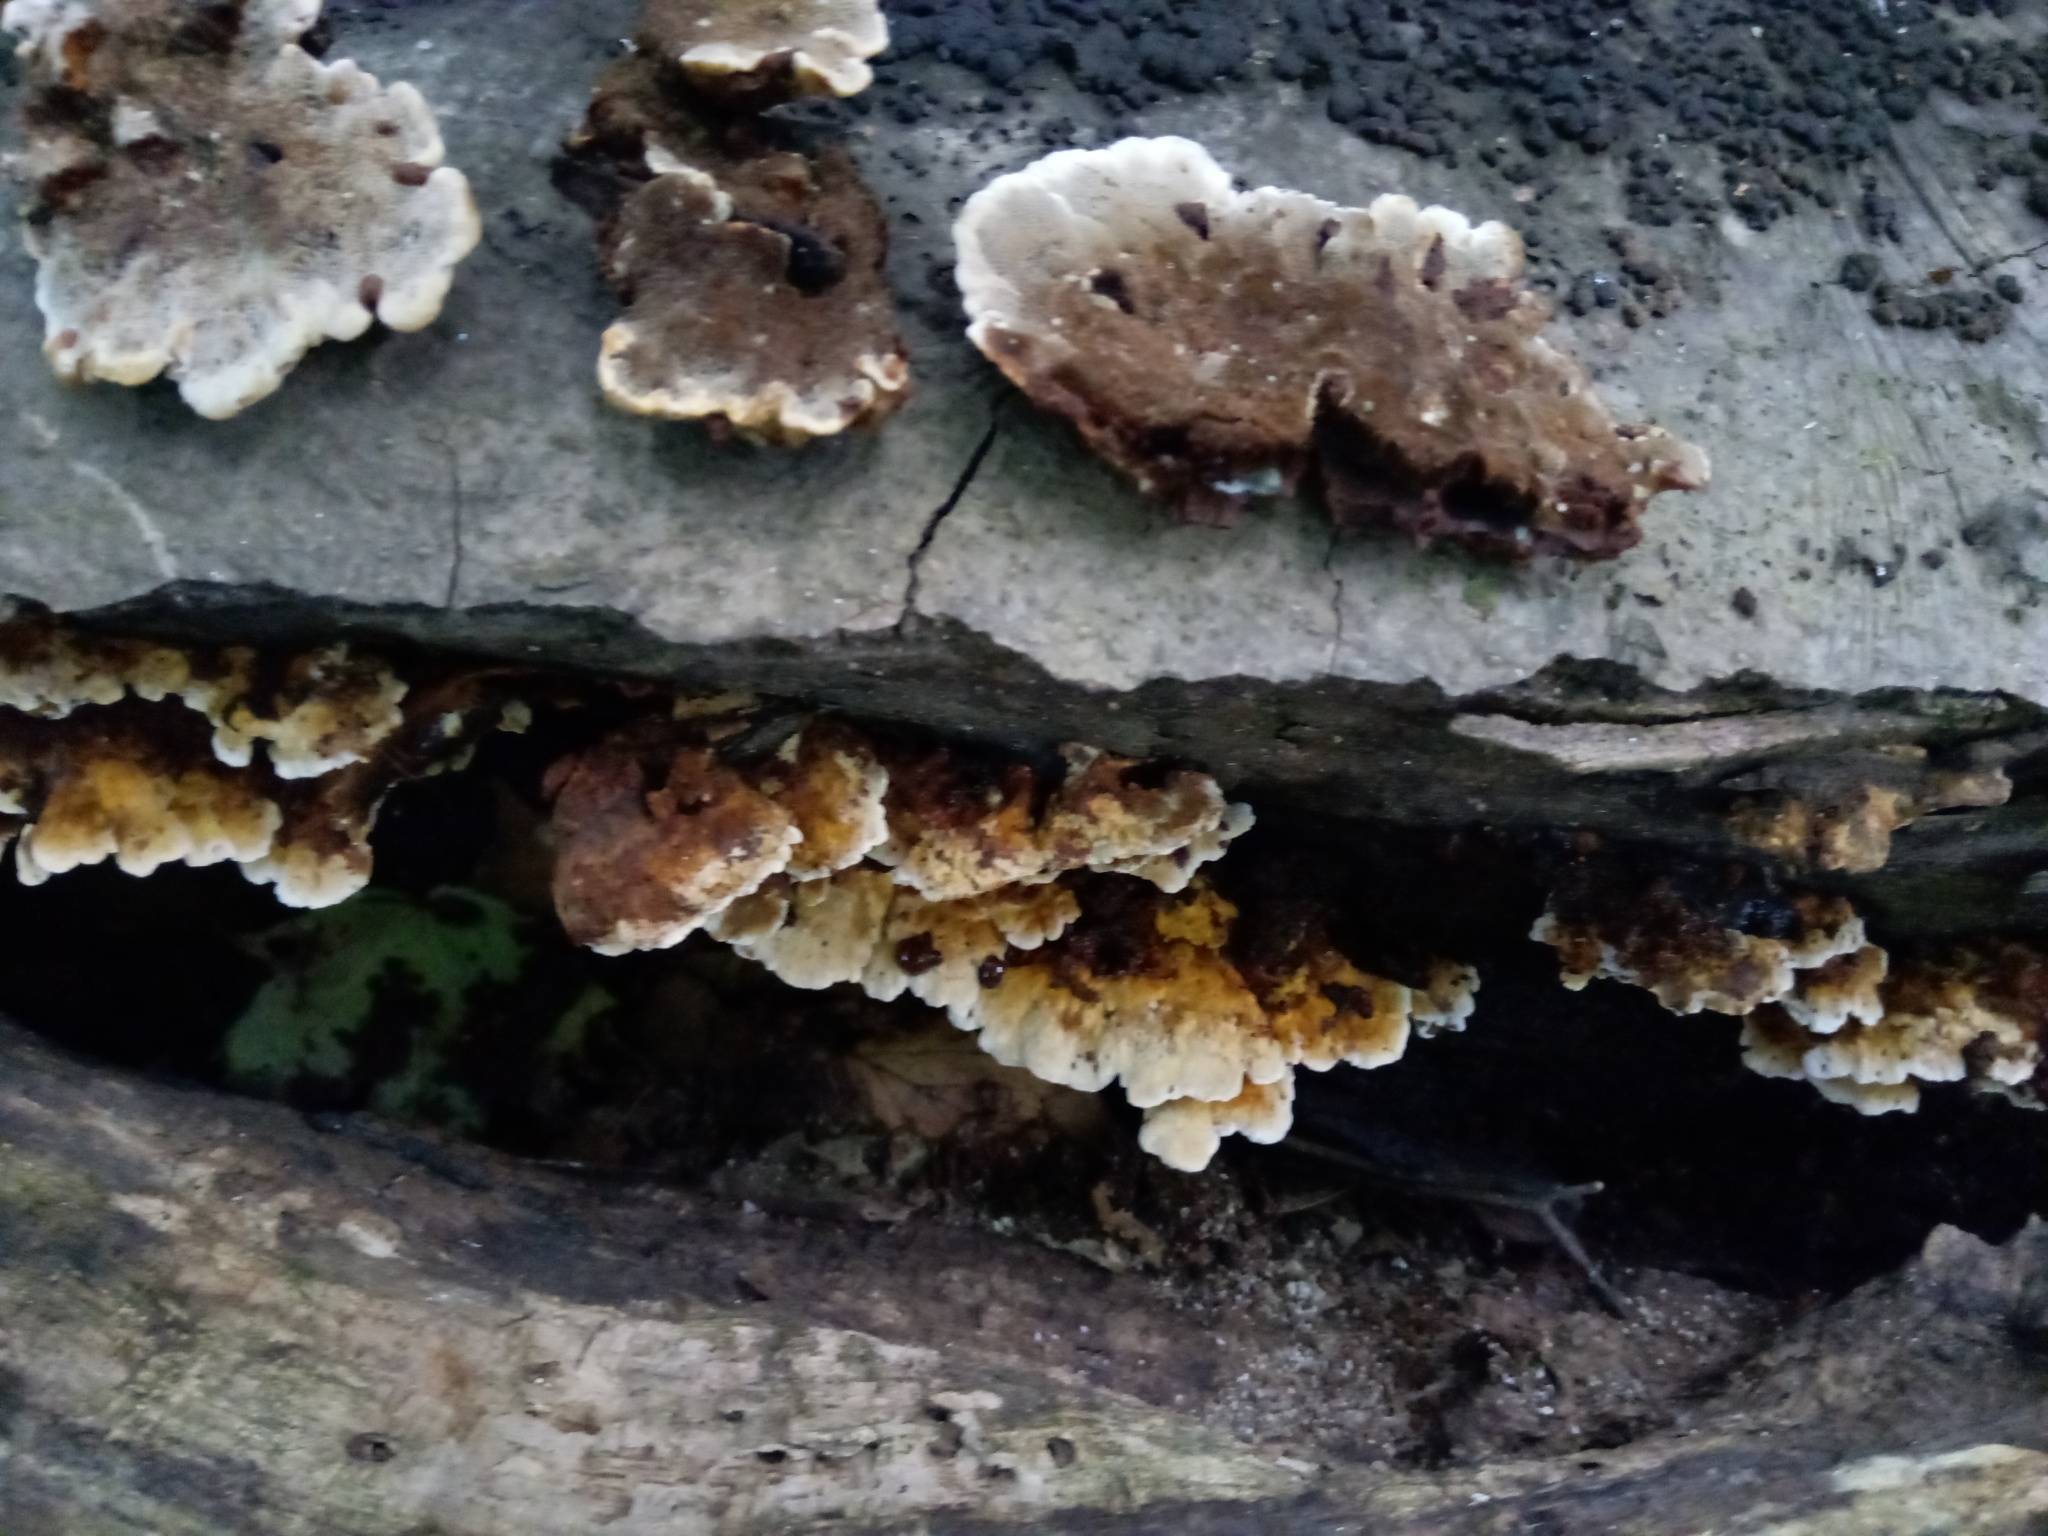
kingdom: Fungi
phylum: Basidiomycota
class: Agaricomycetes
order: Hymenochaetales
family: Hymenochaetaceae
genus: Xanthoporia
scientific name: Xanthoporia radiata
